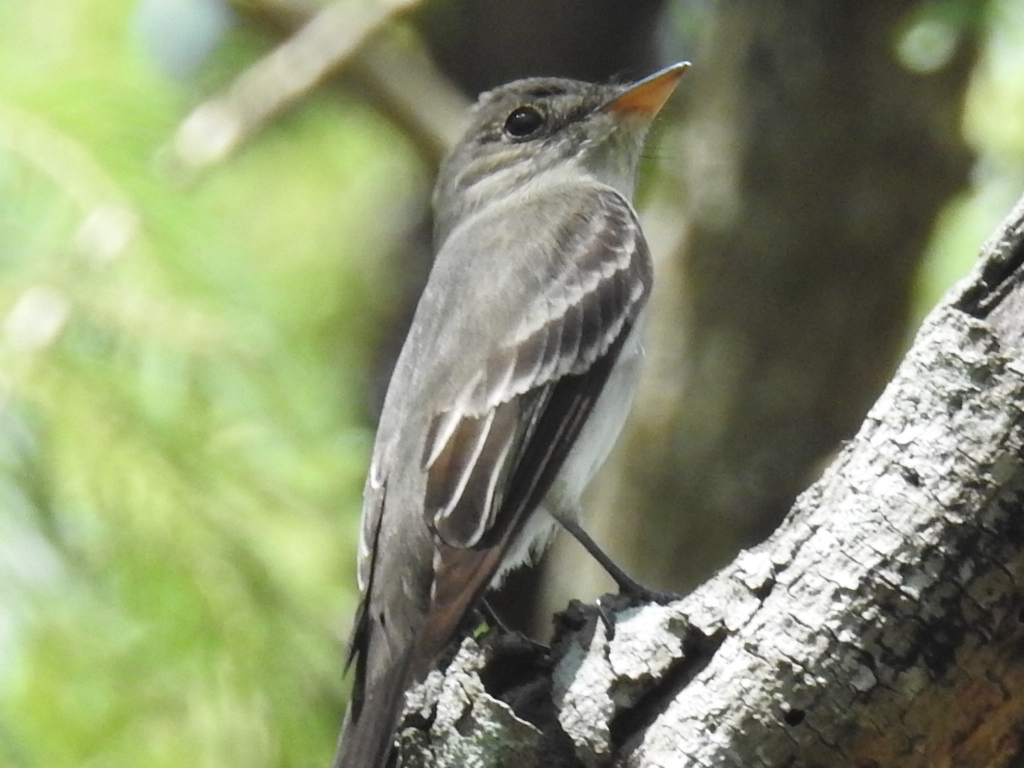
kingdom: Animalia
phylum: Chordata
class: Aves
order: Passeriformes
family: Tyrannidae
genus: Contopus
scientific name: Contopus virens
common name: Eastern wood-pewee
